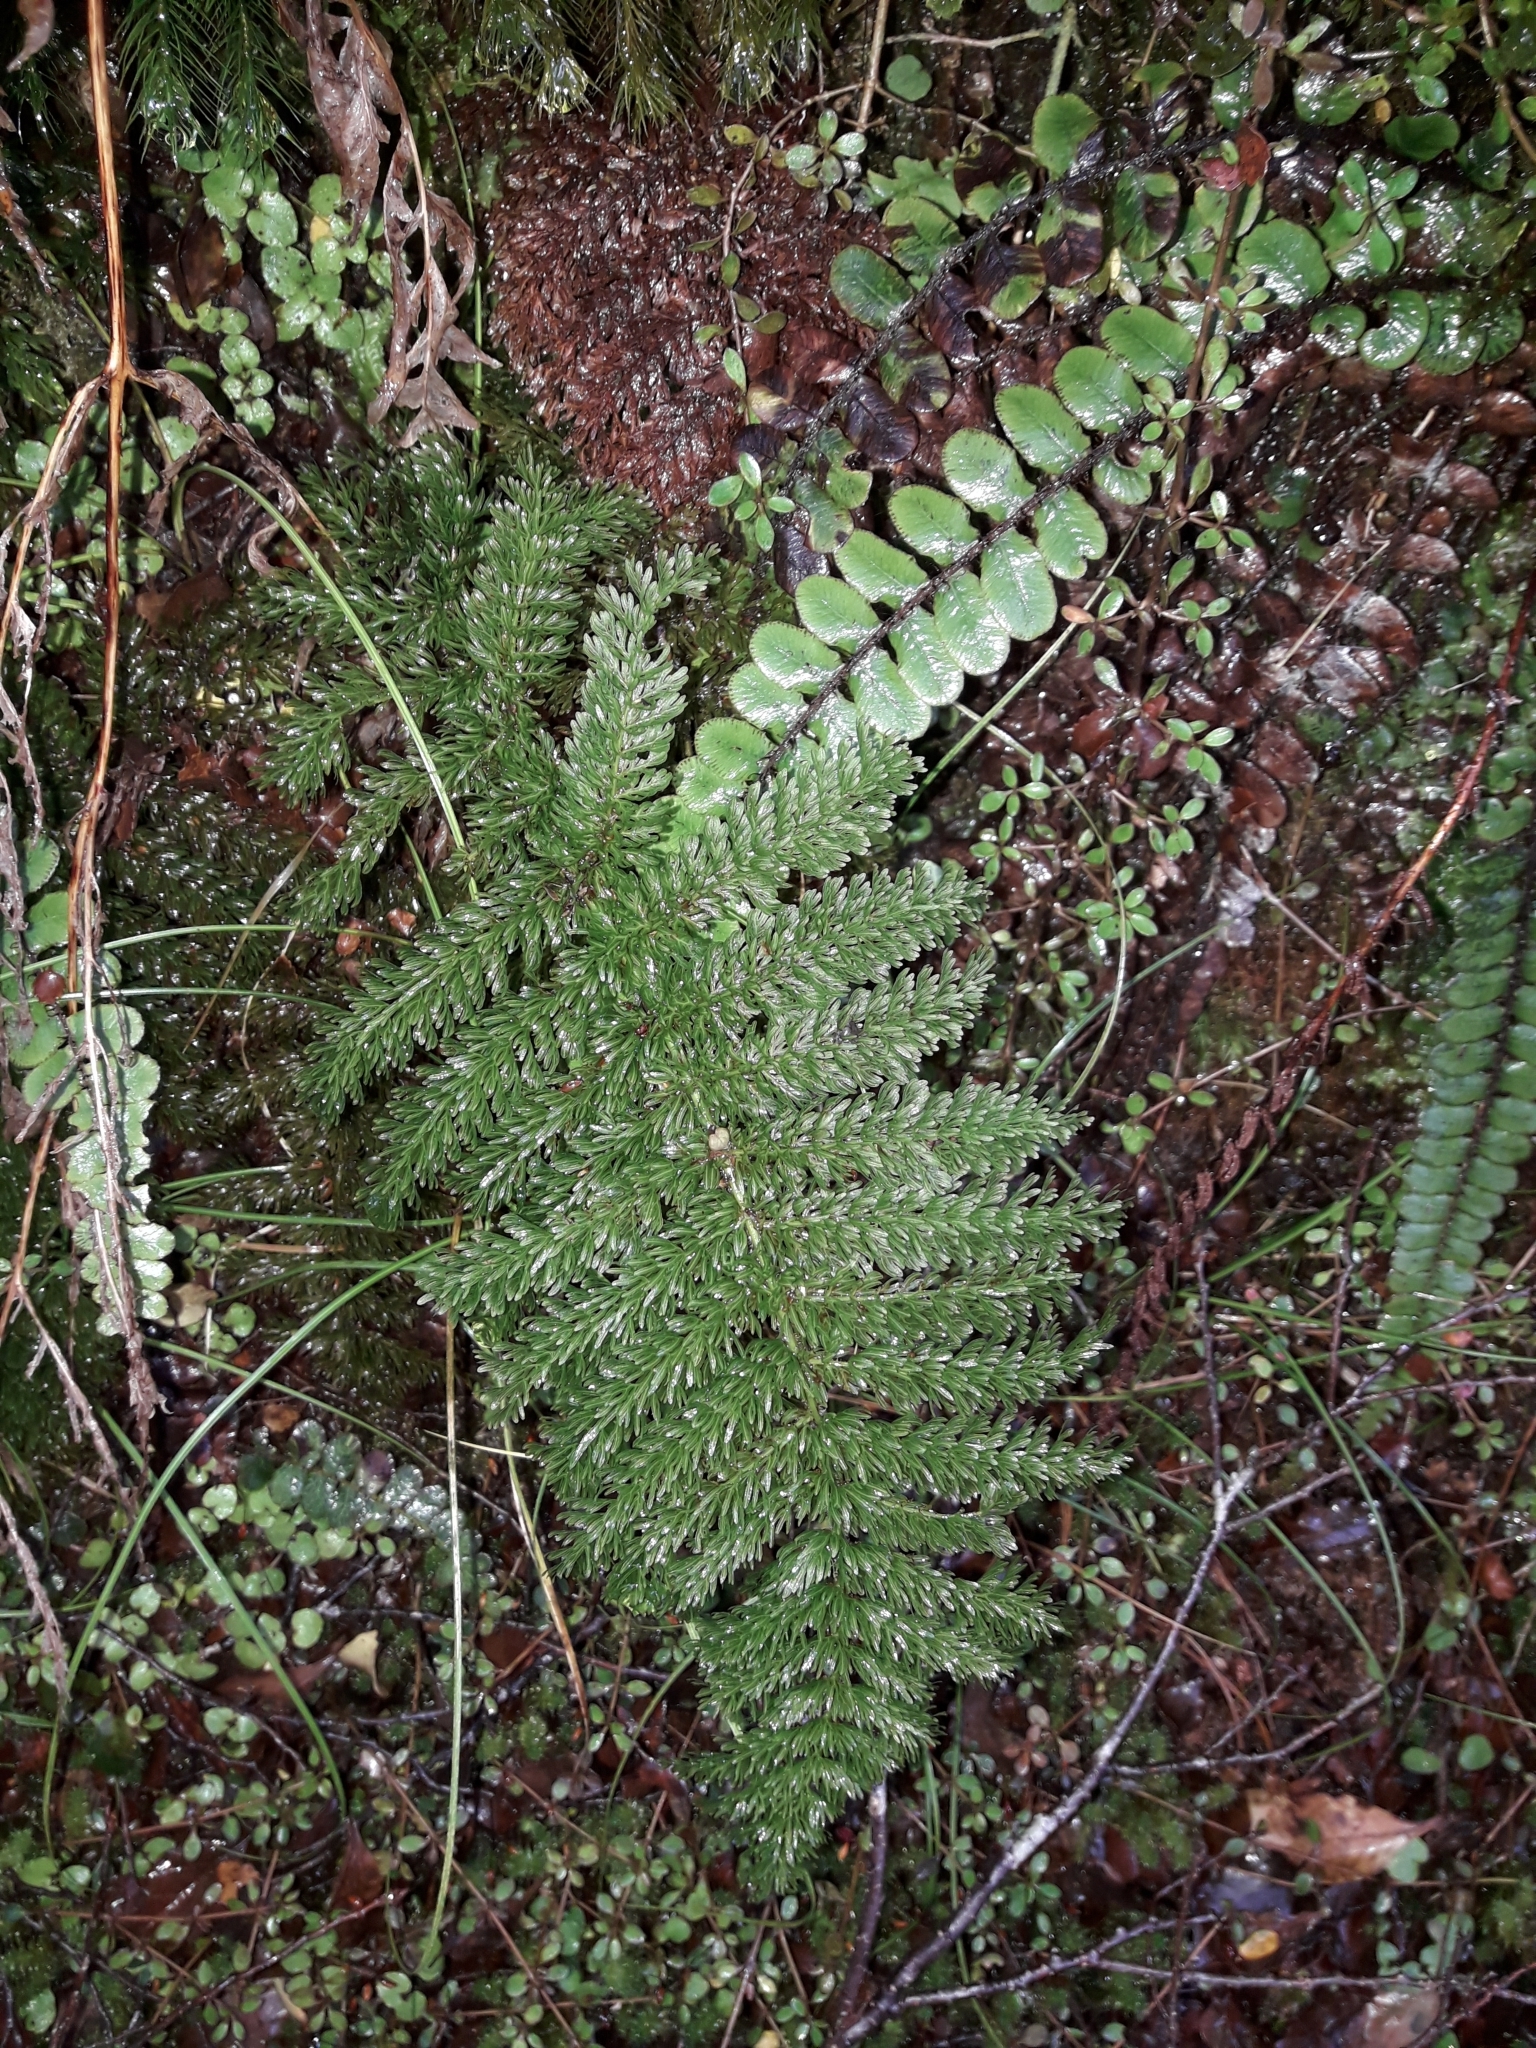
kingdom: Plantae
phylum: Tracheophyta
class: Polypodiopsida
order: Osmundales
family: Osmundaceae
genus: Leptopteris
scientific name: Leptopteris superba
